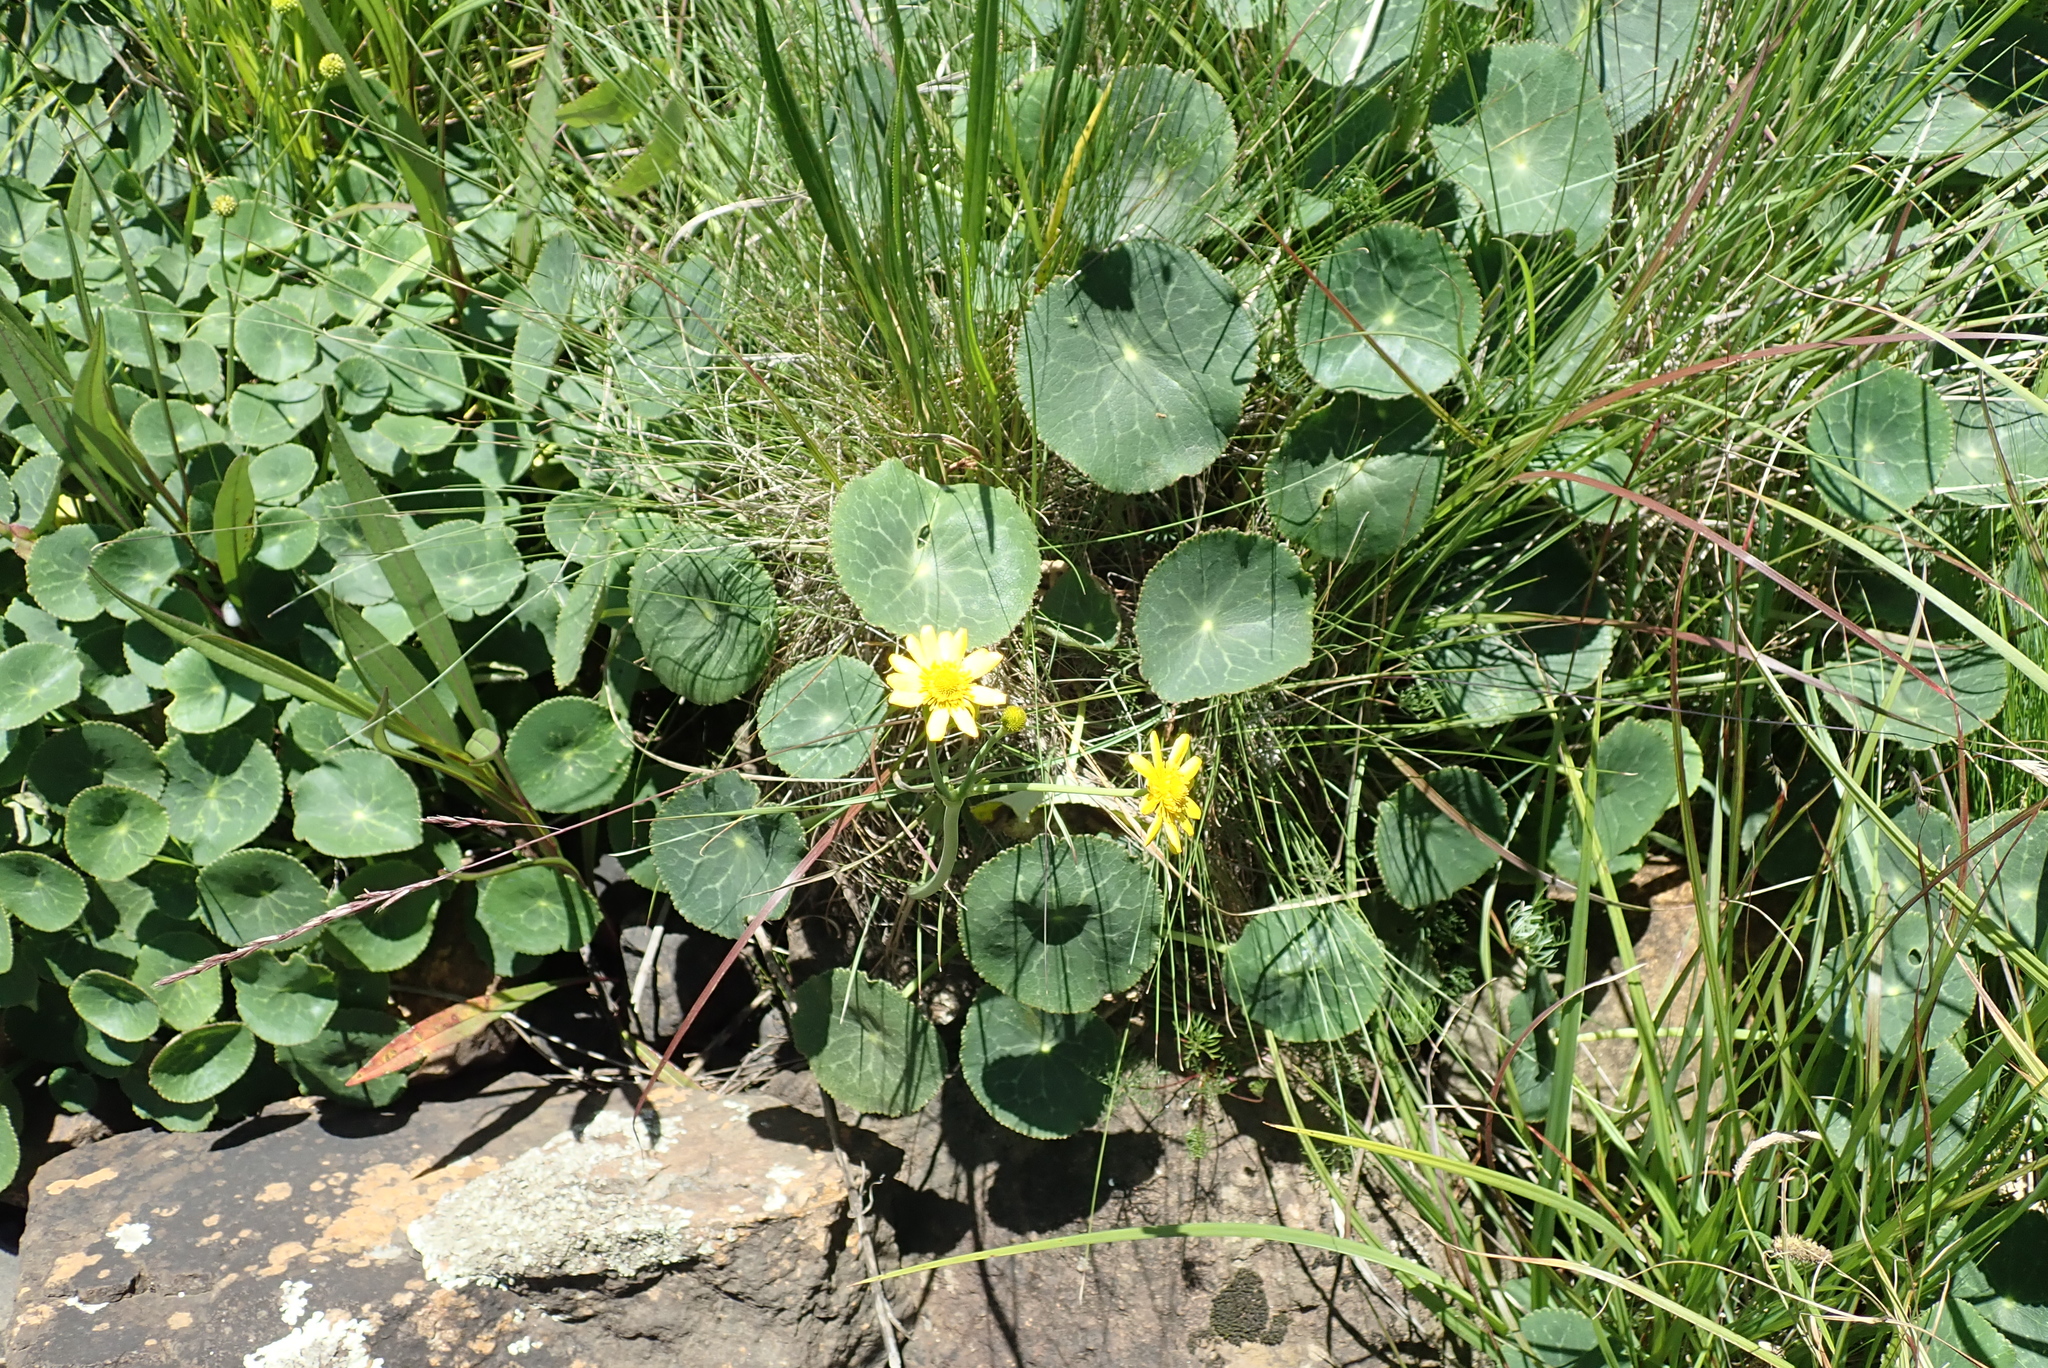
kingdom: Plantae
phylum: Tracheophyta
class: Magnoliopsida
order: Ranunculales
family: Ranunculaceae
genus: Peltocalathos
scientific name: Peltocalathos baurii
